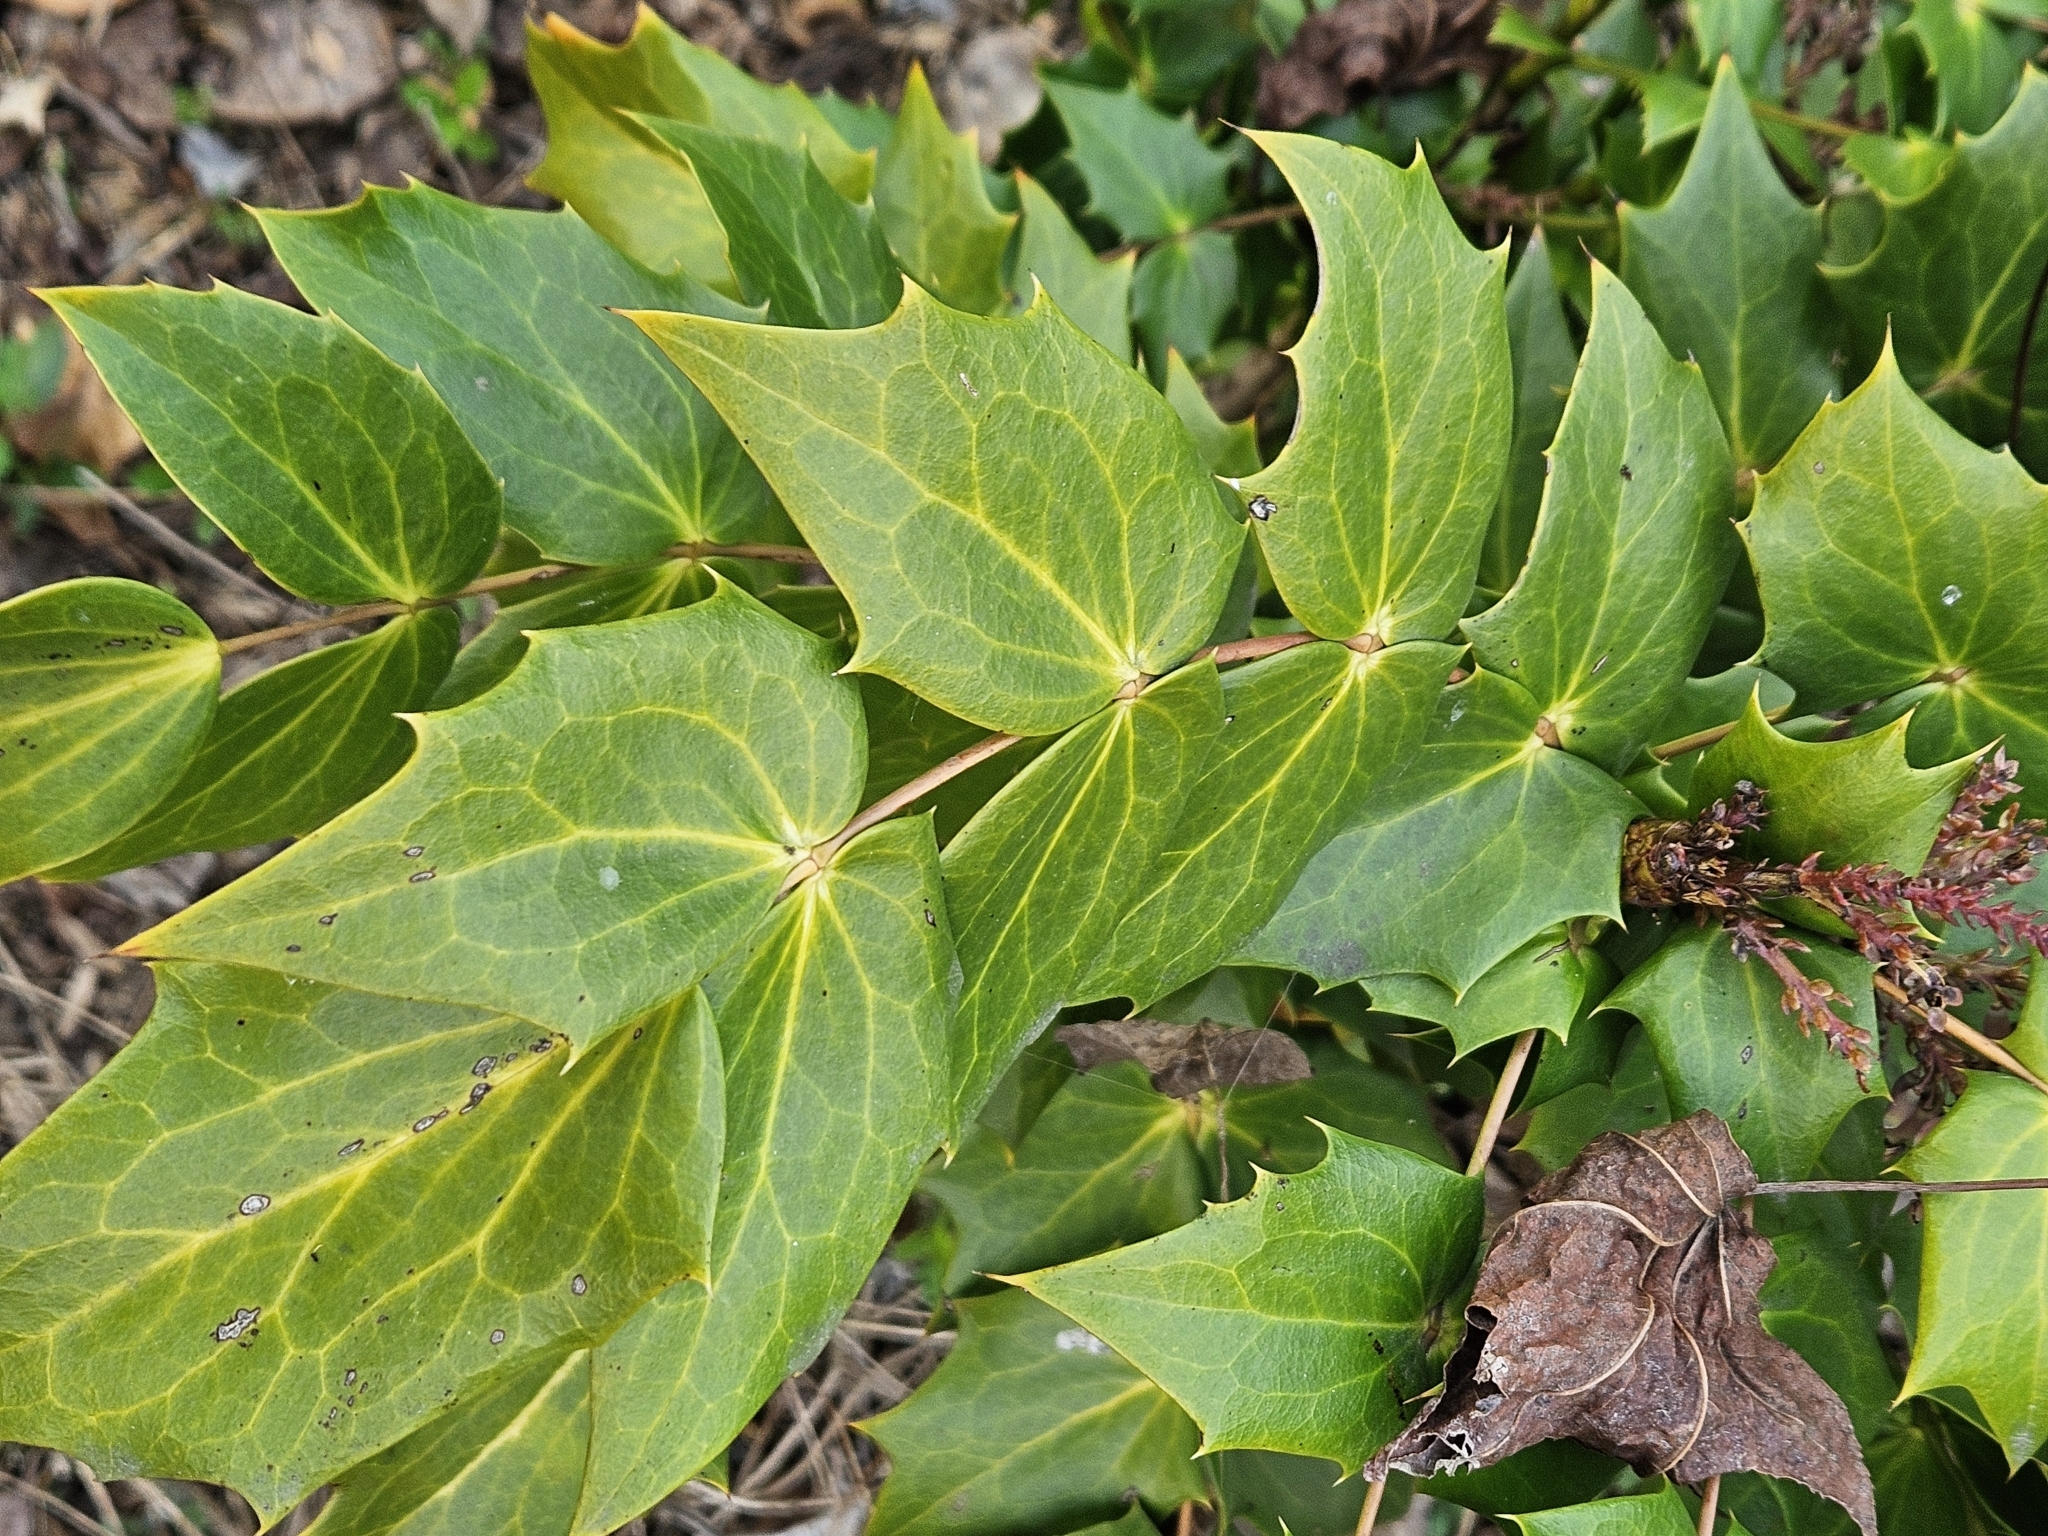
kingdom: Plantae
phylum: Tracheophyta
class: Magnoliopsida
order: Ranunculales
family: Berberidaceae
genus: Mahonia
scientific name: Mahonia bealei
